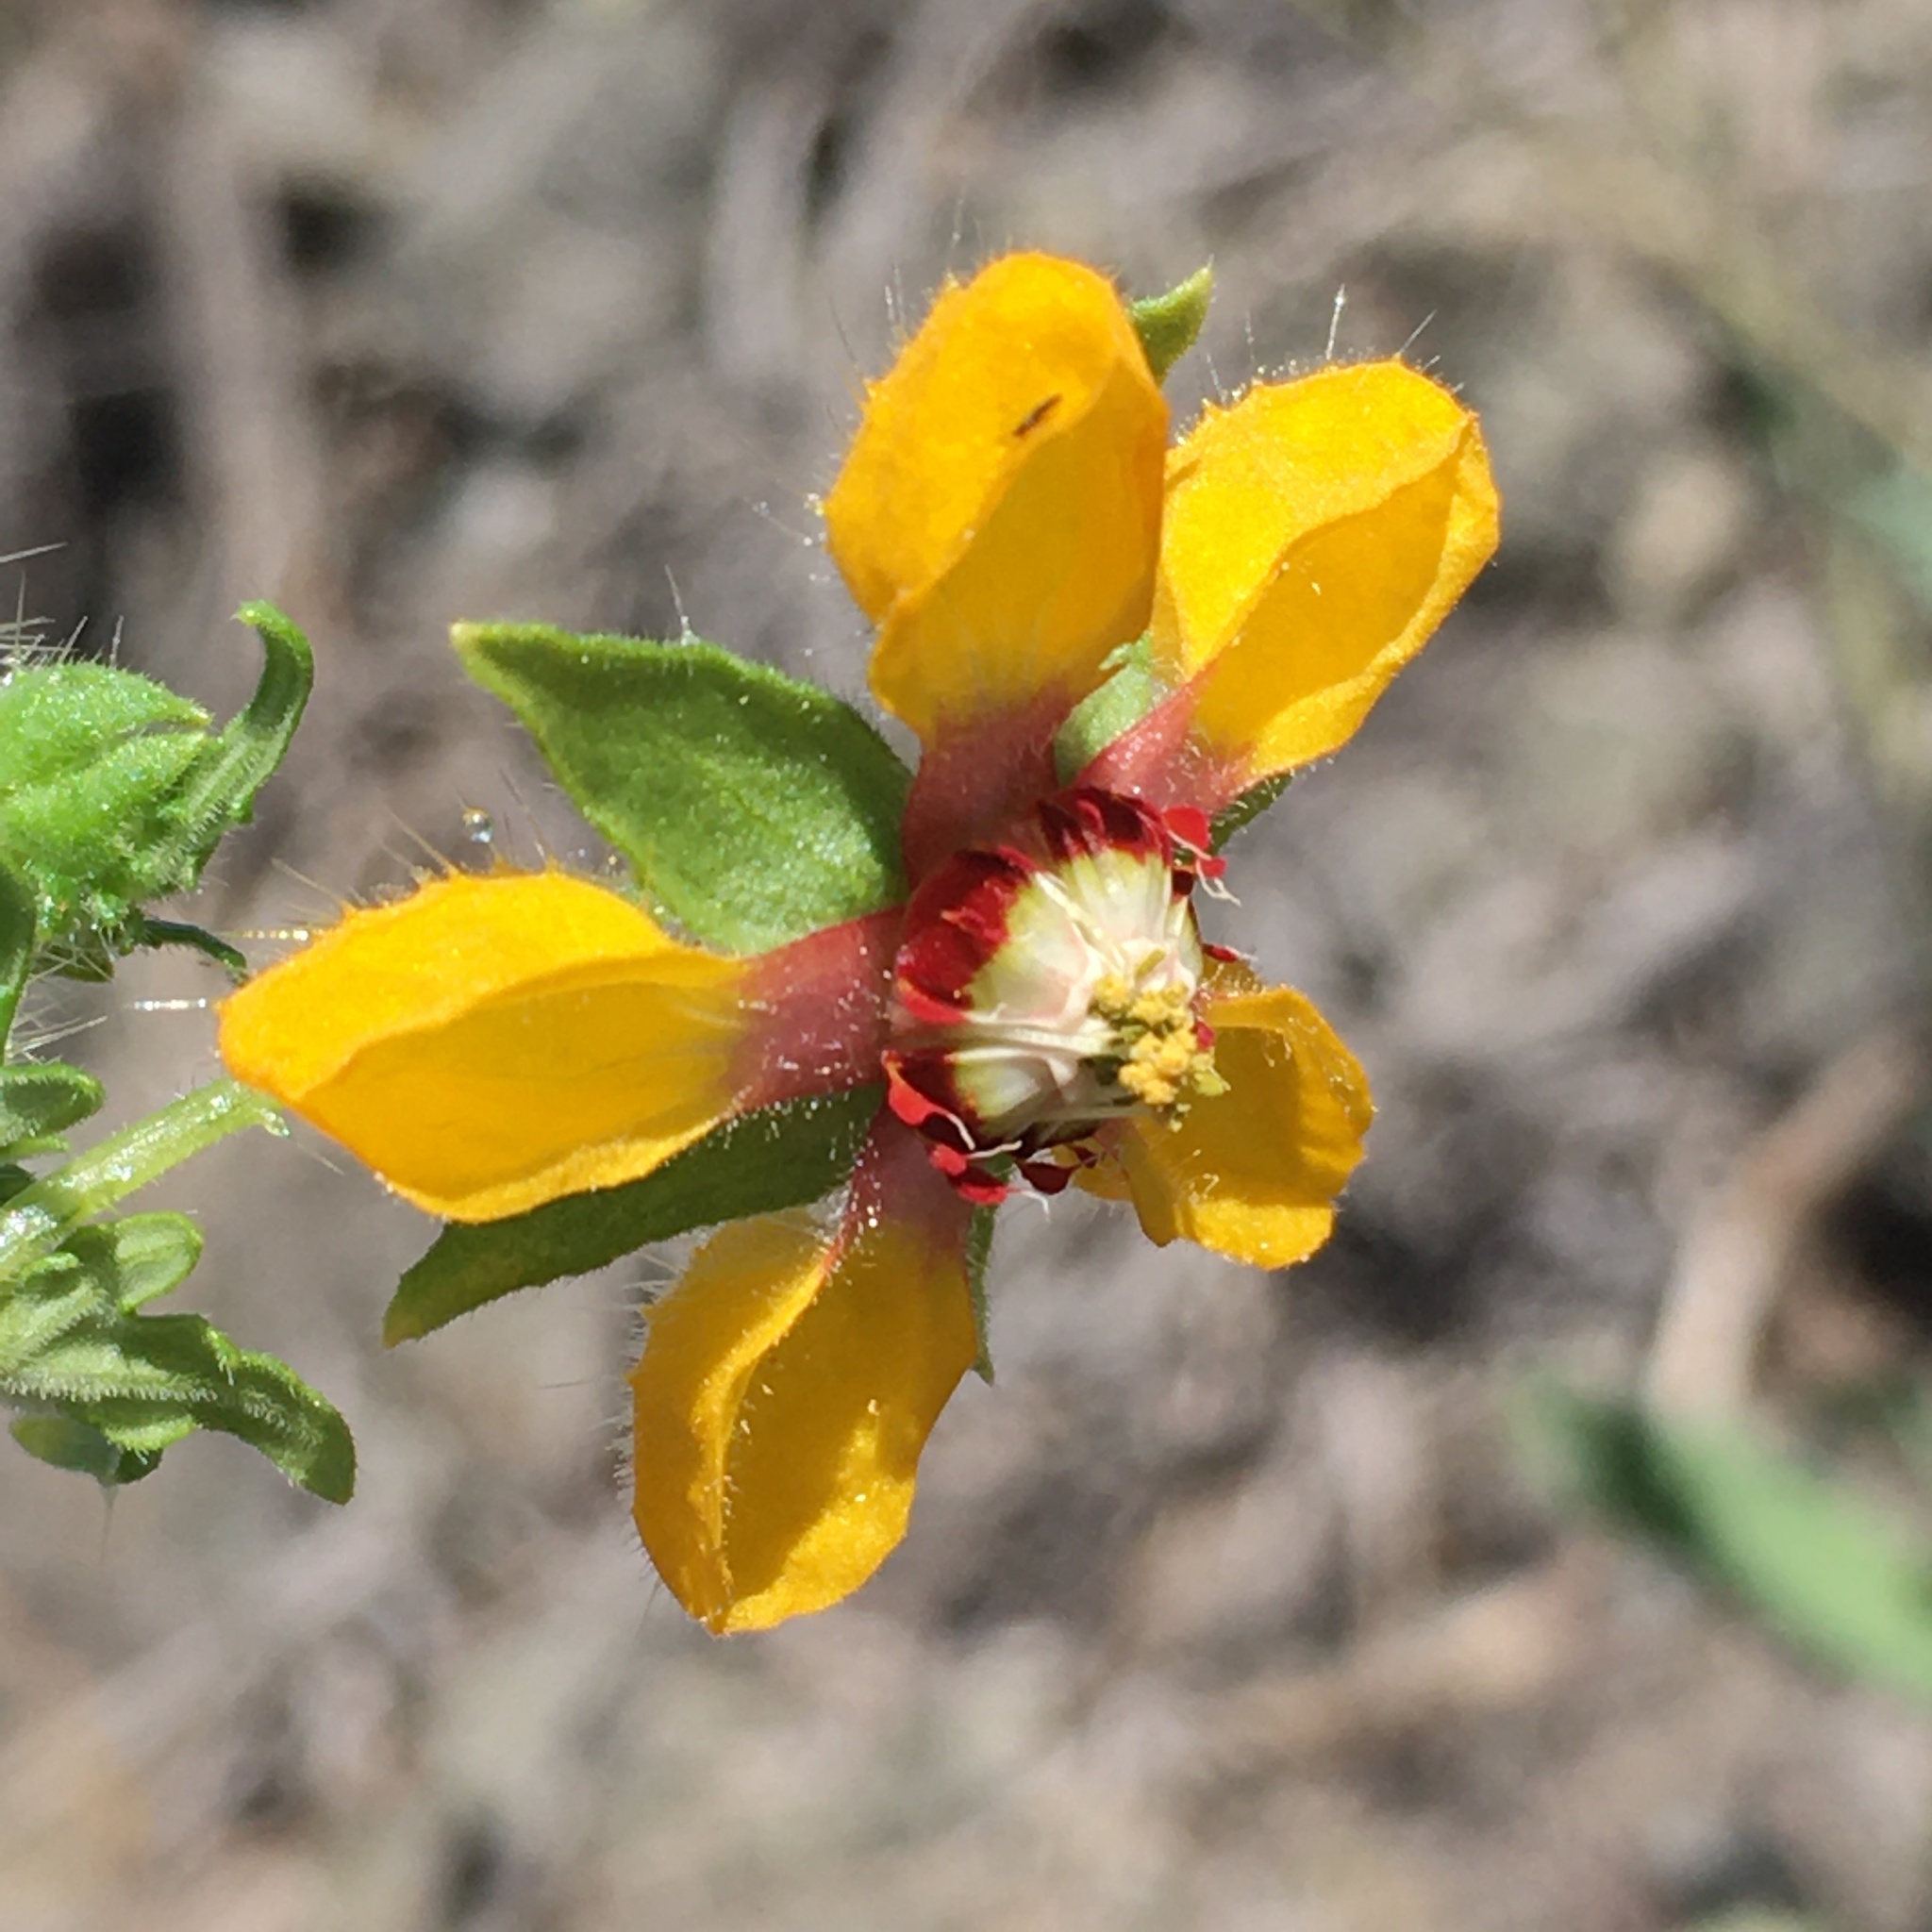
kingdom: Plantae
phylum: Tracheophyta
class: Magnoliopsida
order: Cornales
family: Loasaceae
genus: Loasa
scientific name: Loasa nitida
